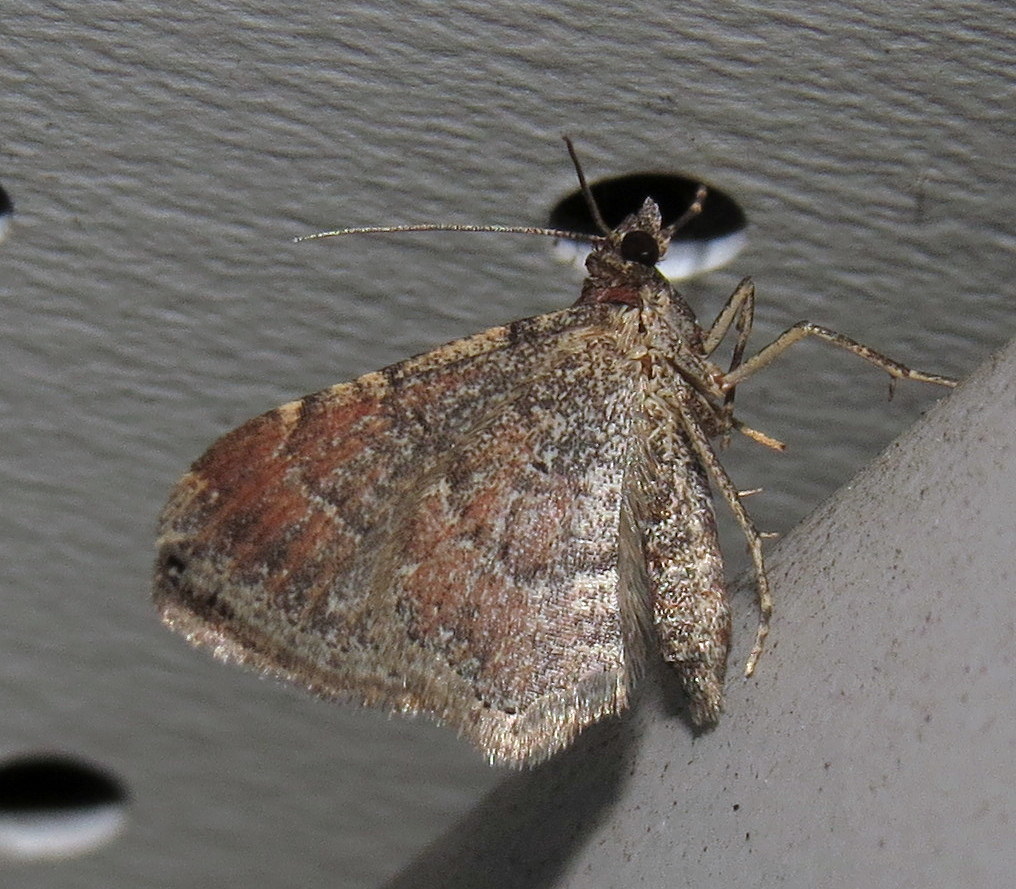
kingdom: Animalia
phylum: Arthropoda
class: Insecta
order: Lepidoptera
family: Geometridae
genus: Orthonama
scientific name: Orthonama obstipata
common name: The gem
